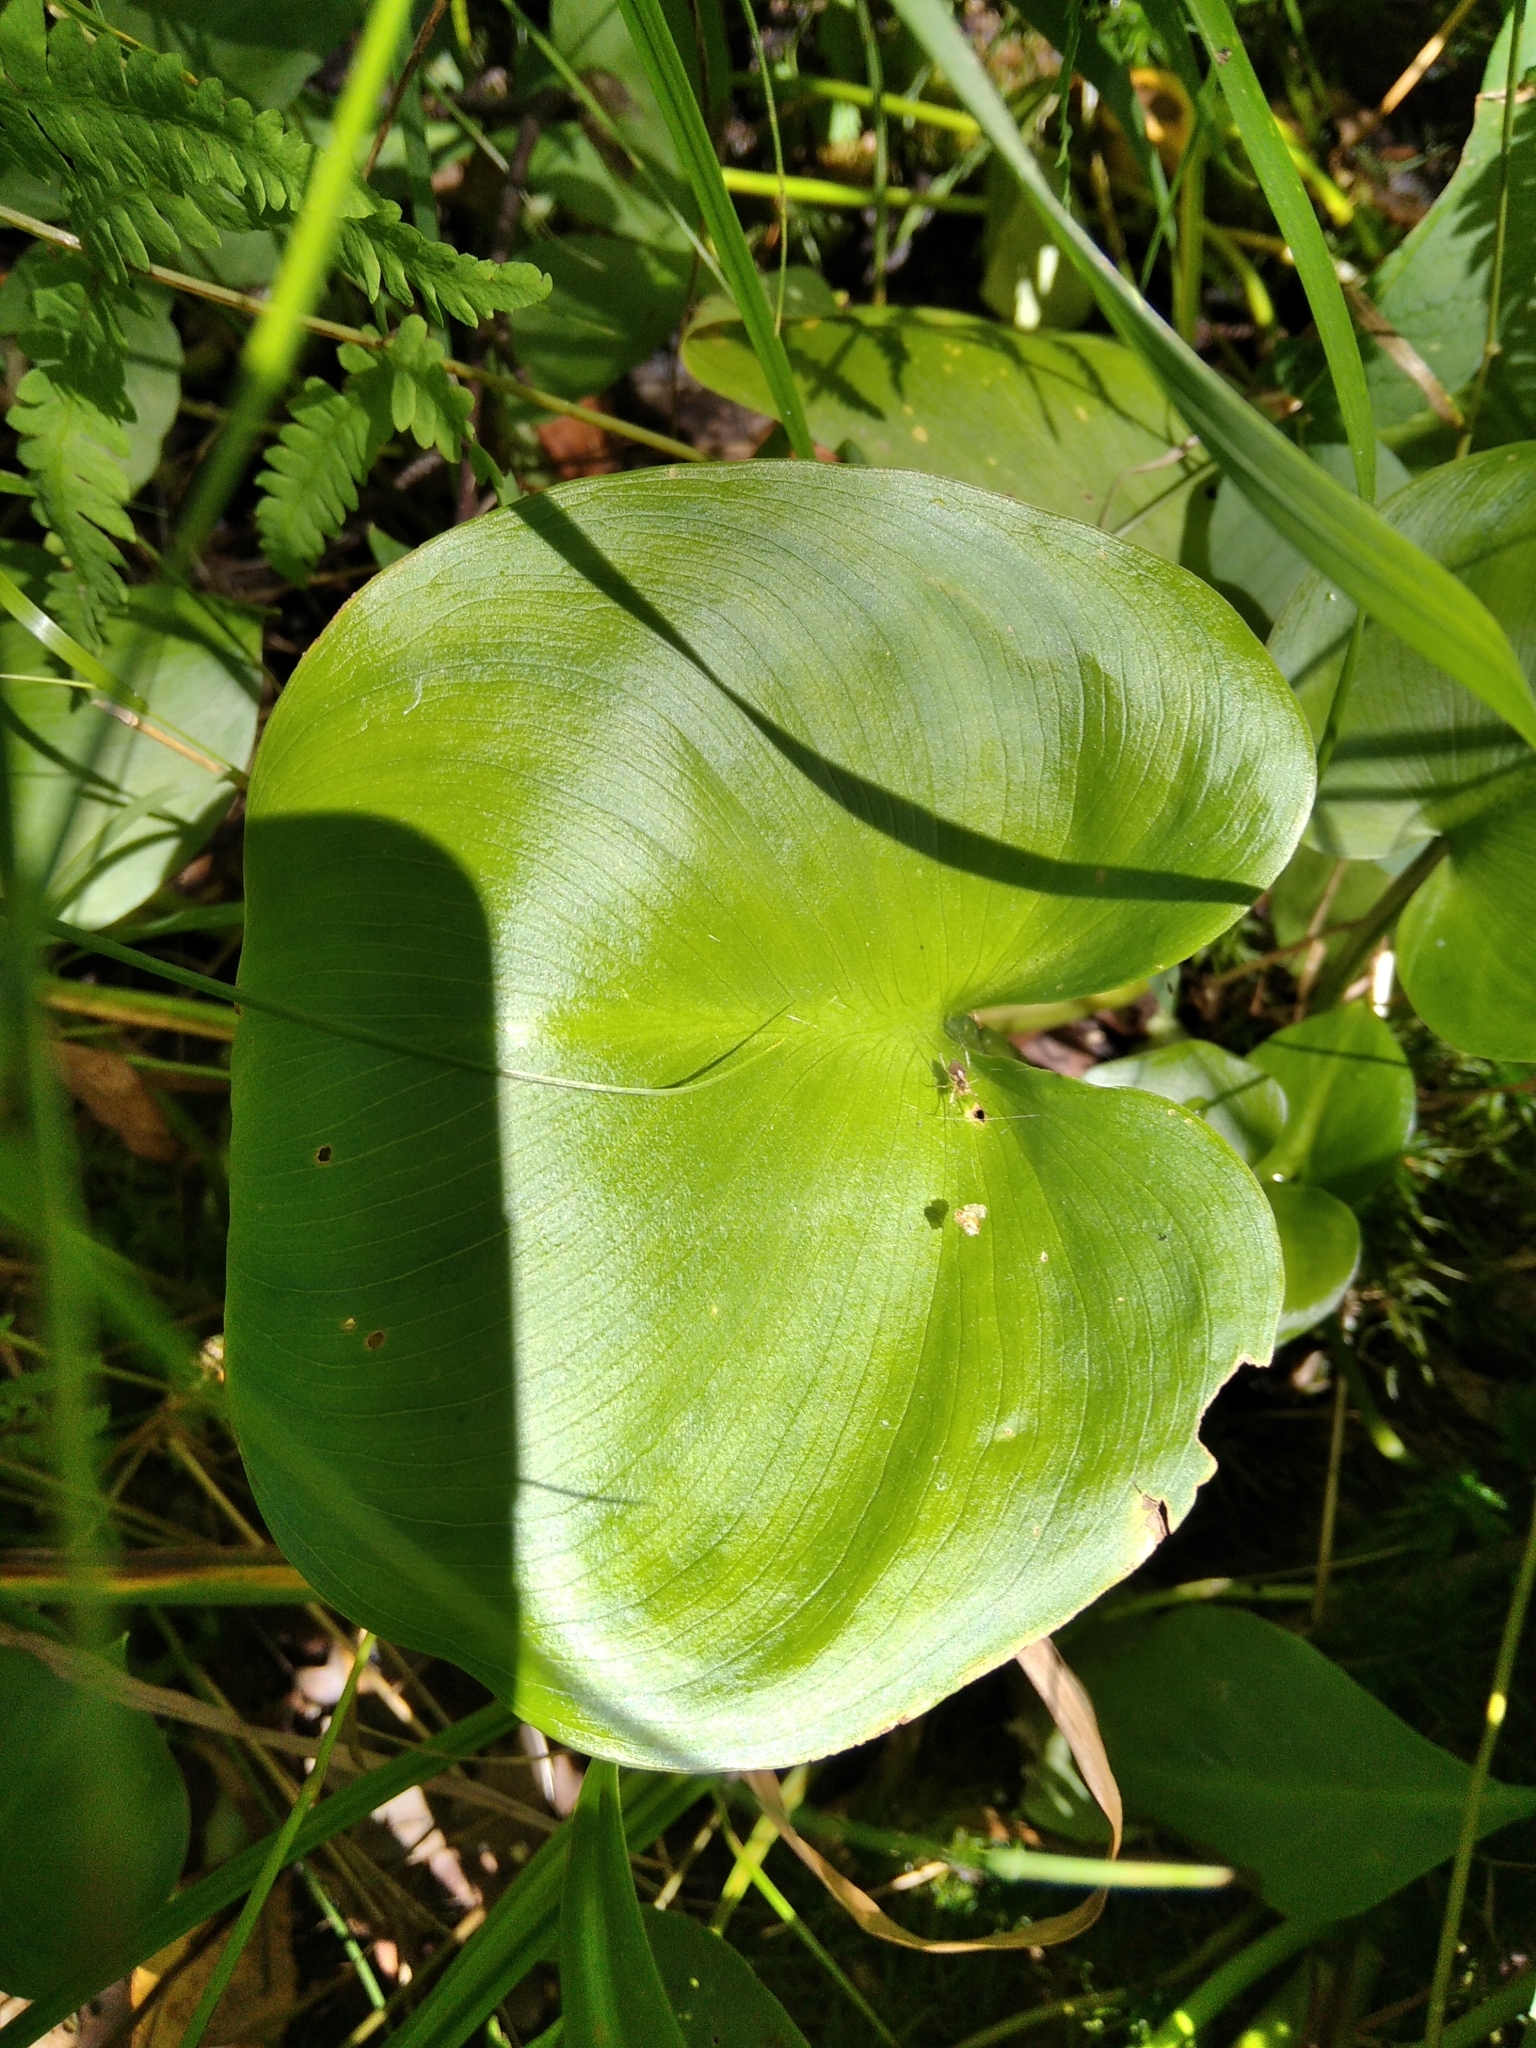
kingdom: Plantae
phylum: Tracheophyta
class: Liliopsida
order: Alismatales
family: Araceae
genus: Calla
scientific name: Calla palustris
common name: Bog arum
